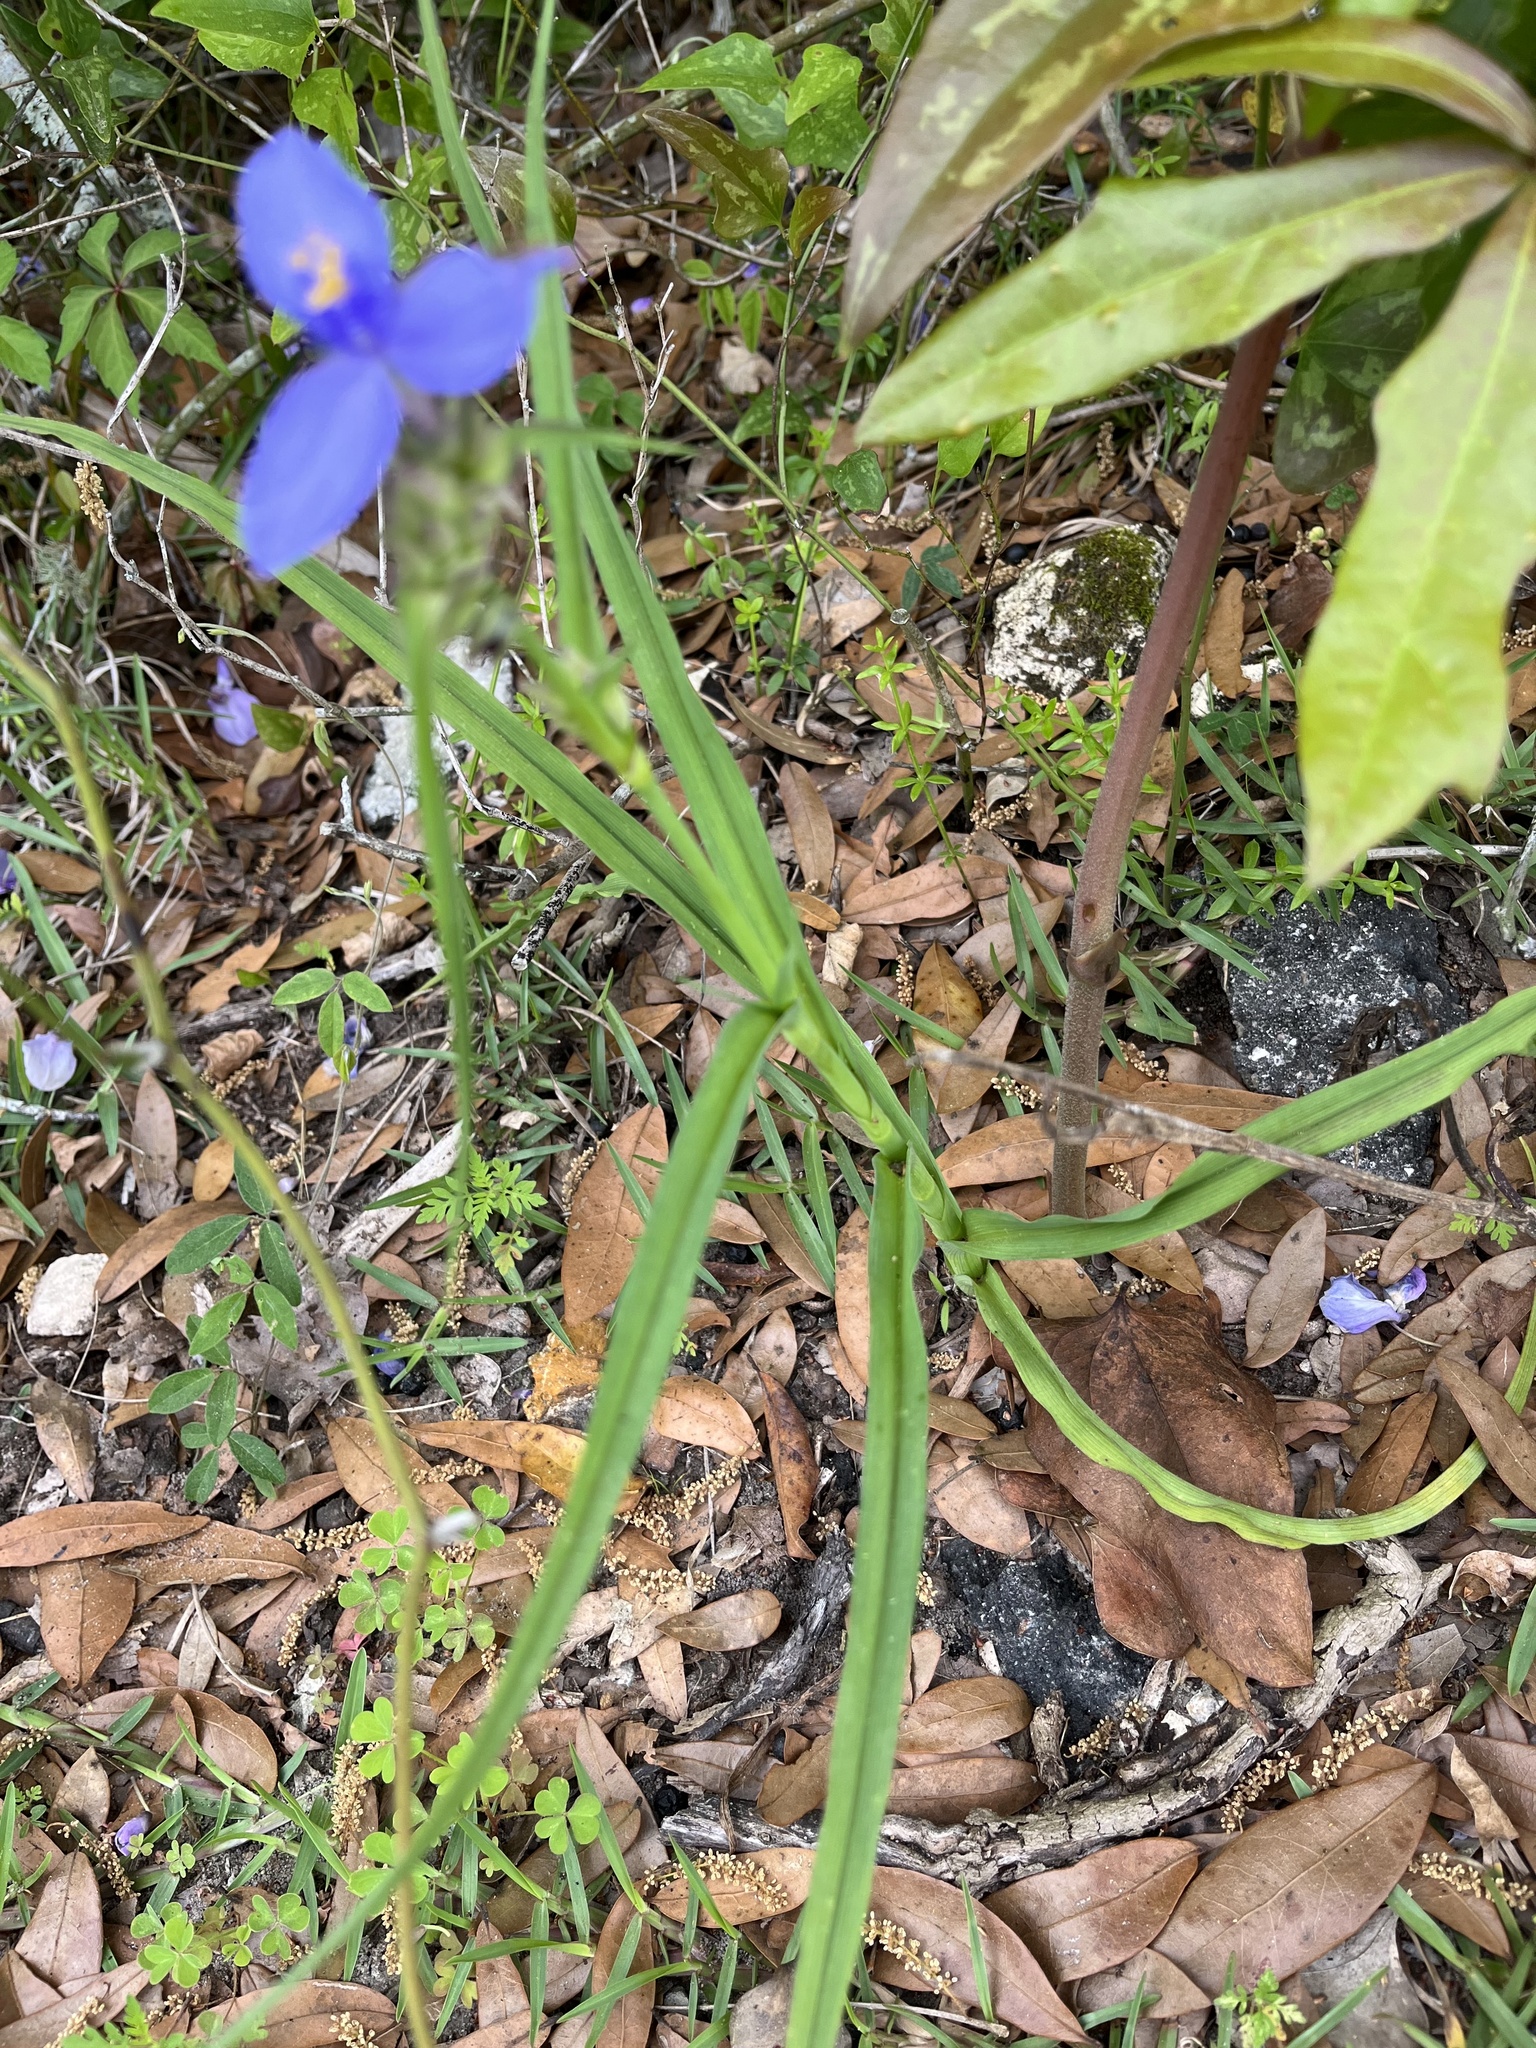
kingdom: Plantae
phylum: Tracheophyta
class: Liliopsida
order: Commelinales
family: Commelinaceae
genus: Tradescantia
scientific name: Tradescantia ohiensis
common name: Ohio spiderwort
